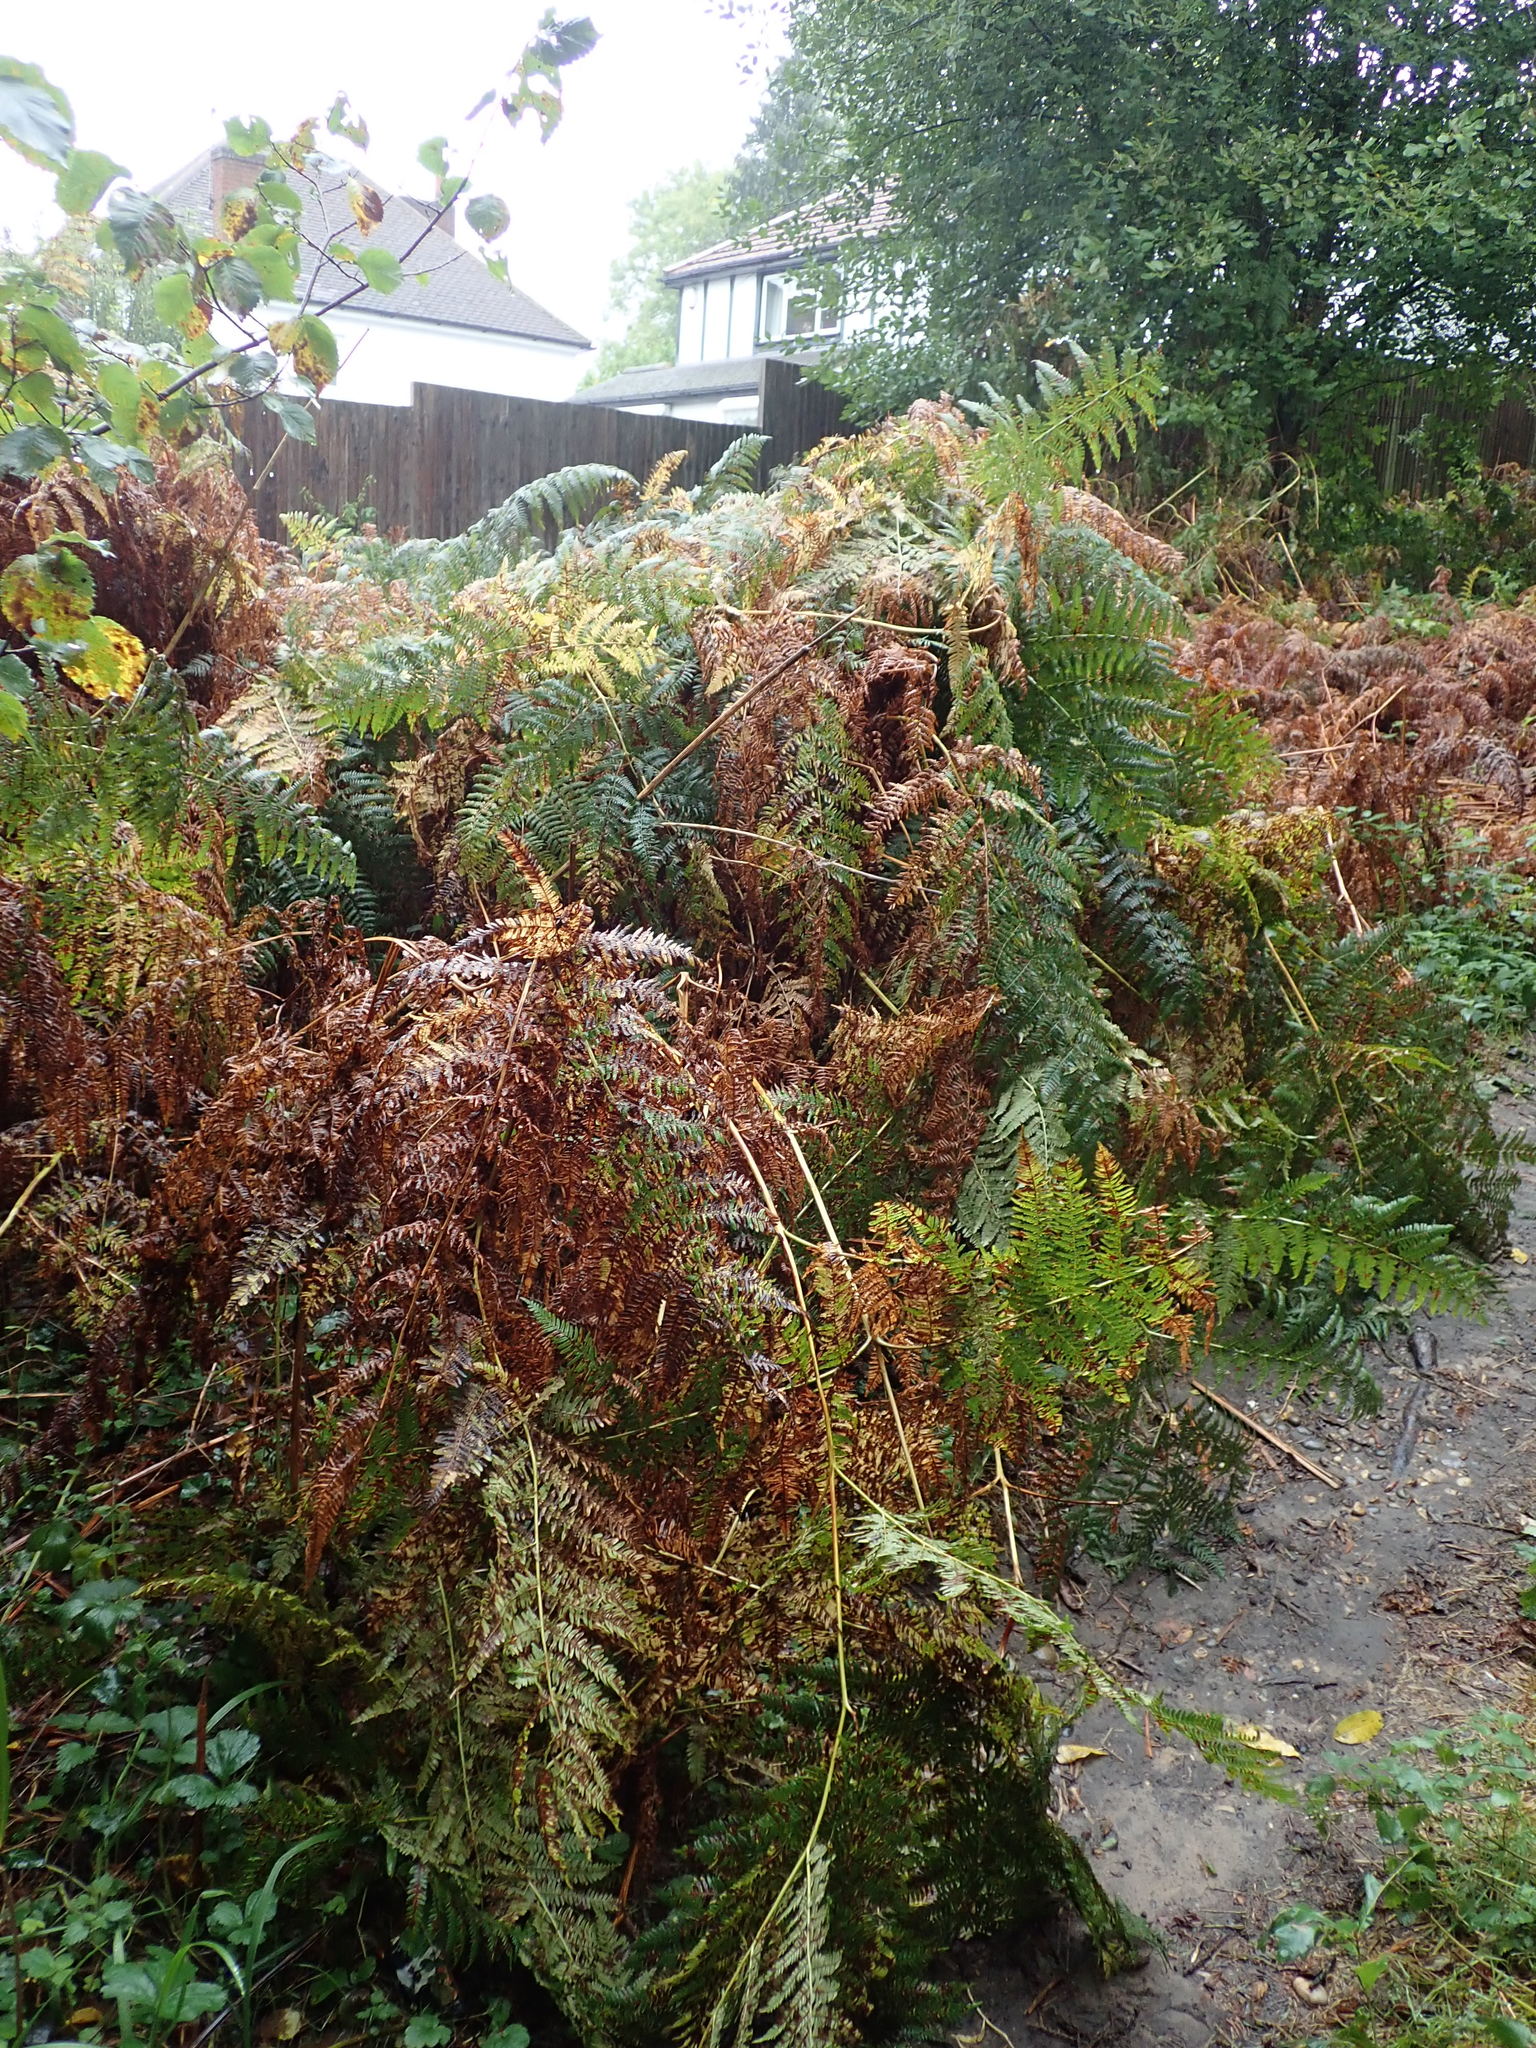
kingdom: Plantae
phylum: Tracheophyta
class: Polypodiopsida
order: Polypodiales
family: Dennstaedtiaceae
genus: Pteridium
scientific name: Pteridium aquilinum
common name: Bracken
